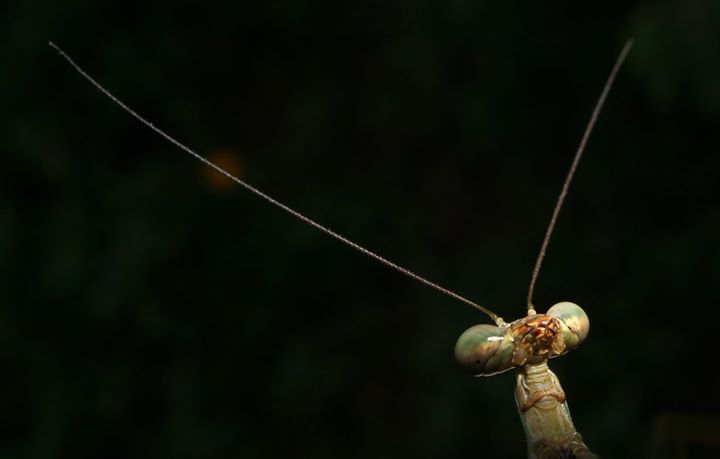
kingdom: Animalia
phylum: Arthropoda
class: Insecta
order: Mantodea
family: Mantidae
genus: Stagmomantis
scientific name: Stagmomantis carolina
